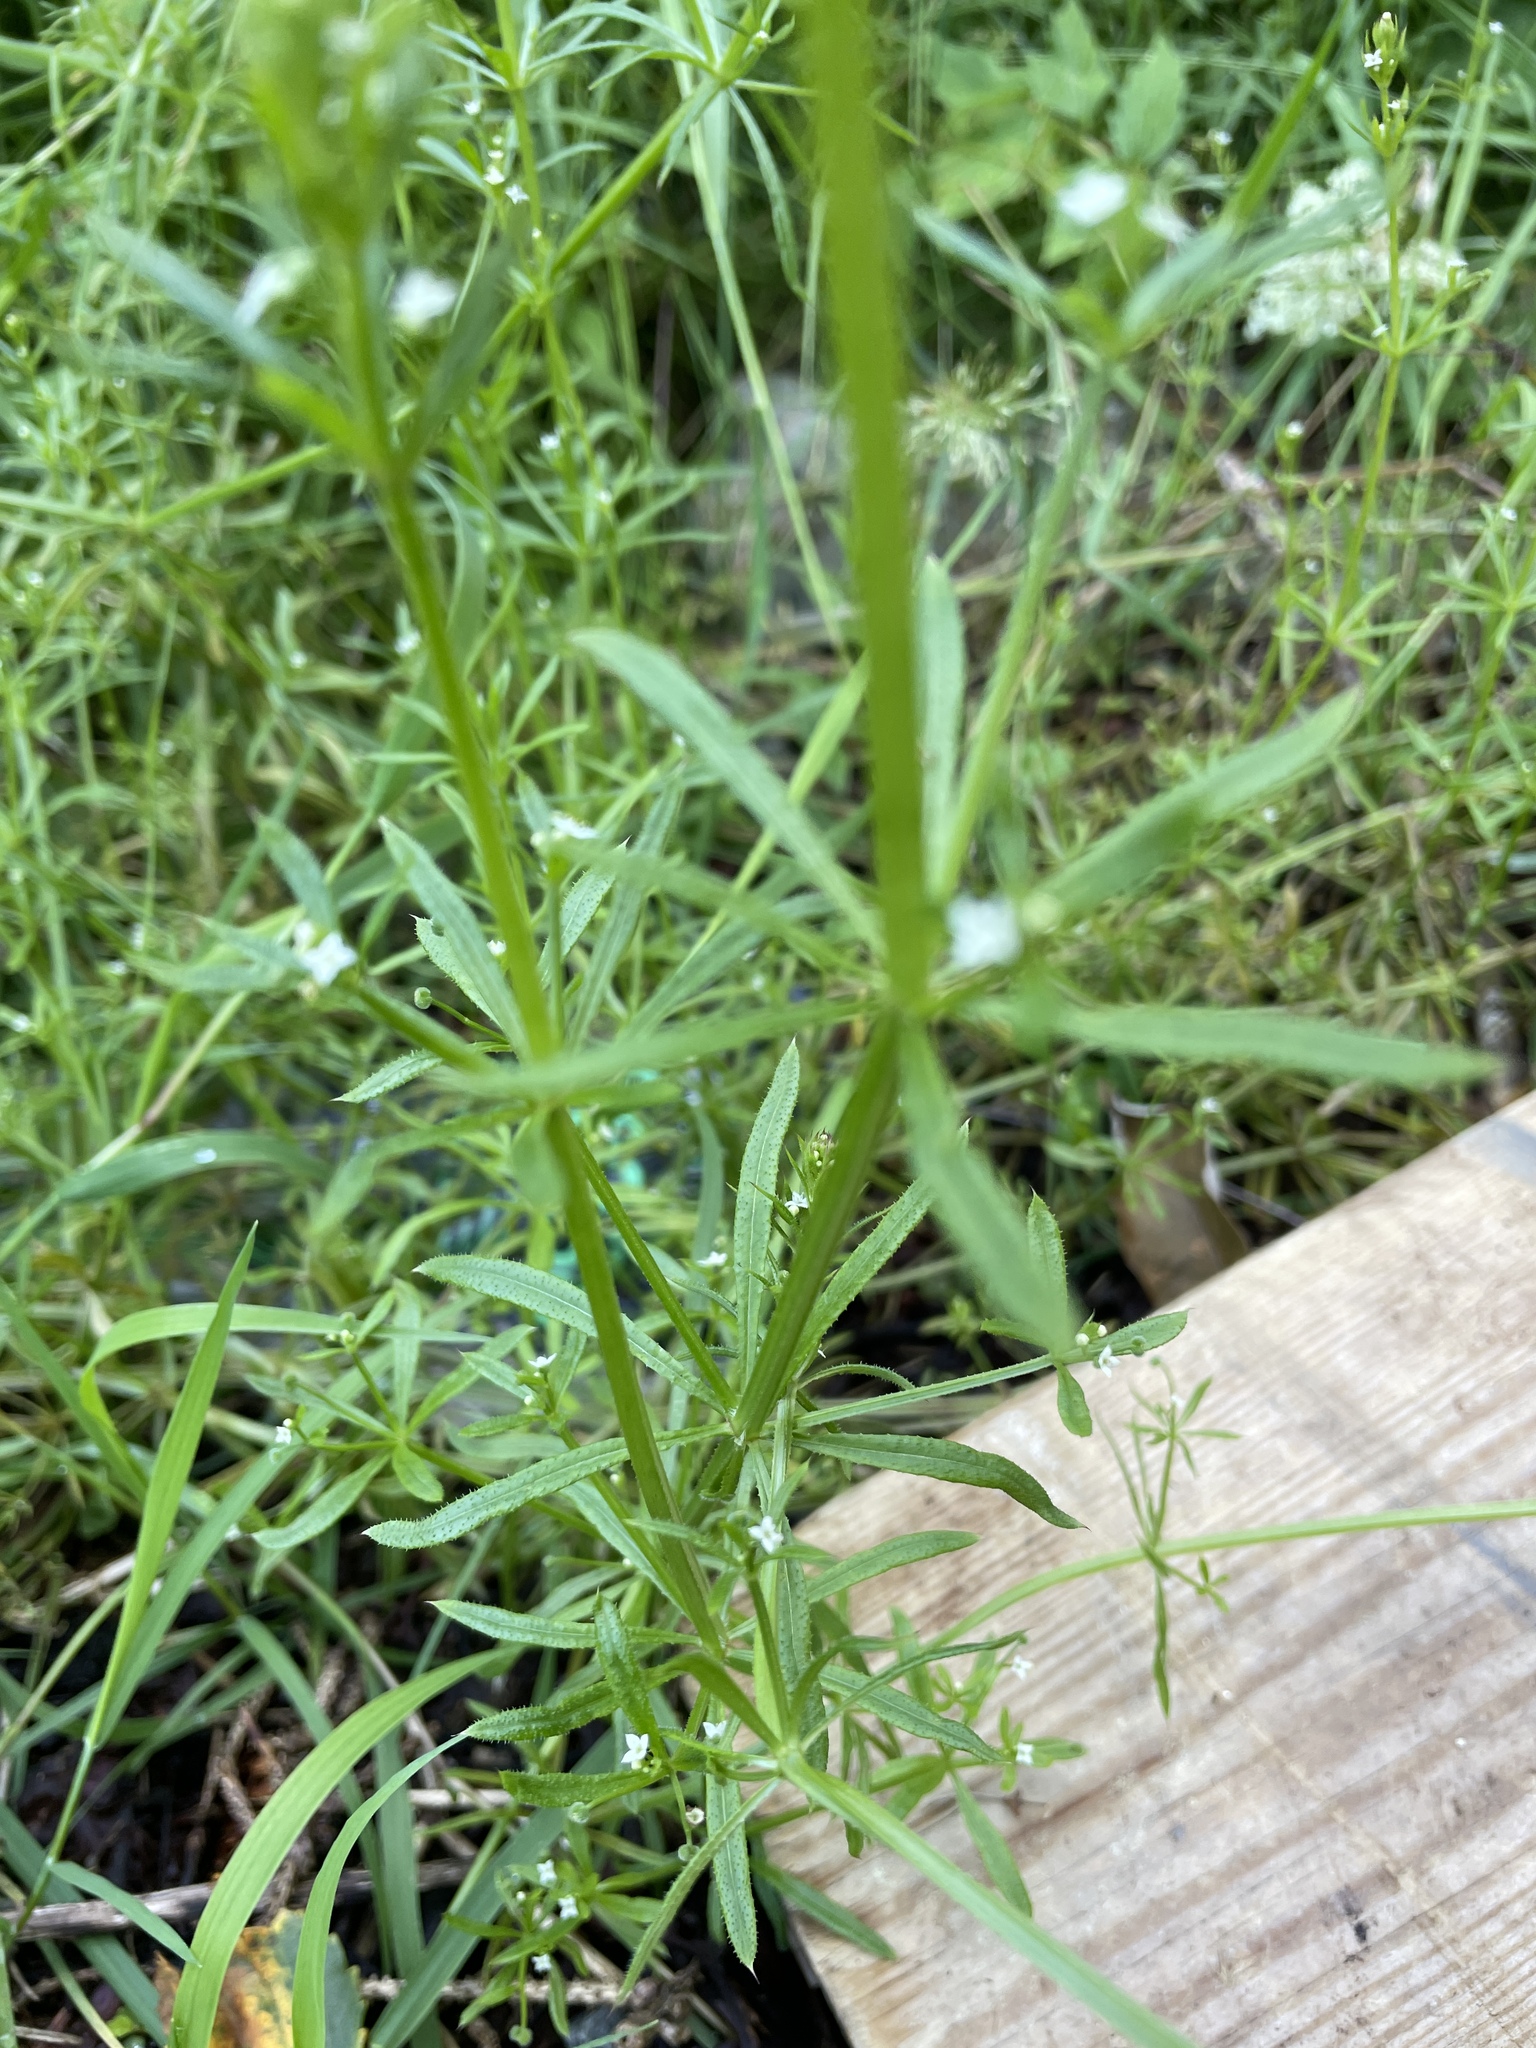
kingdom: Plantae
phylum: Tracheophyta
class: Magnoliopsida
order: Gentianales
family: Rubiaceae
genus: Galium
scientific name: Galium aparine
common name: Cleavers
